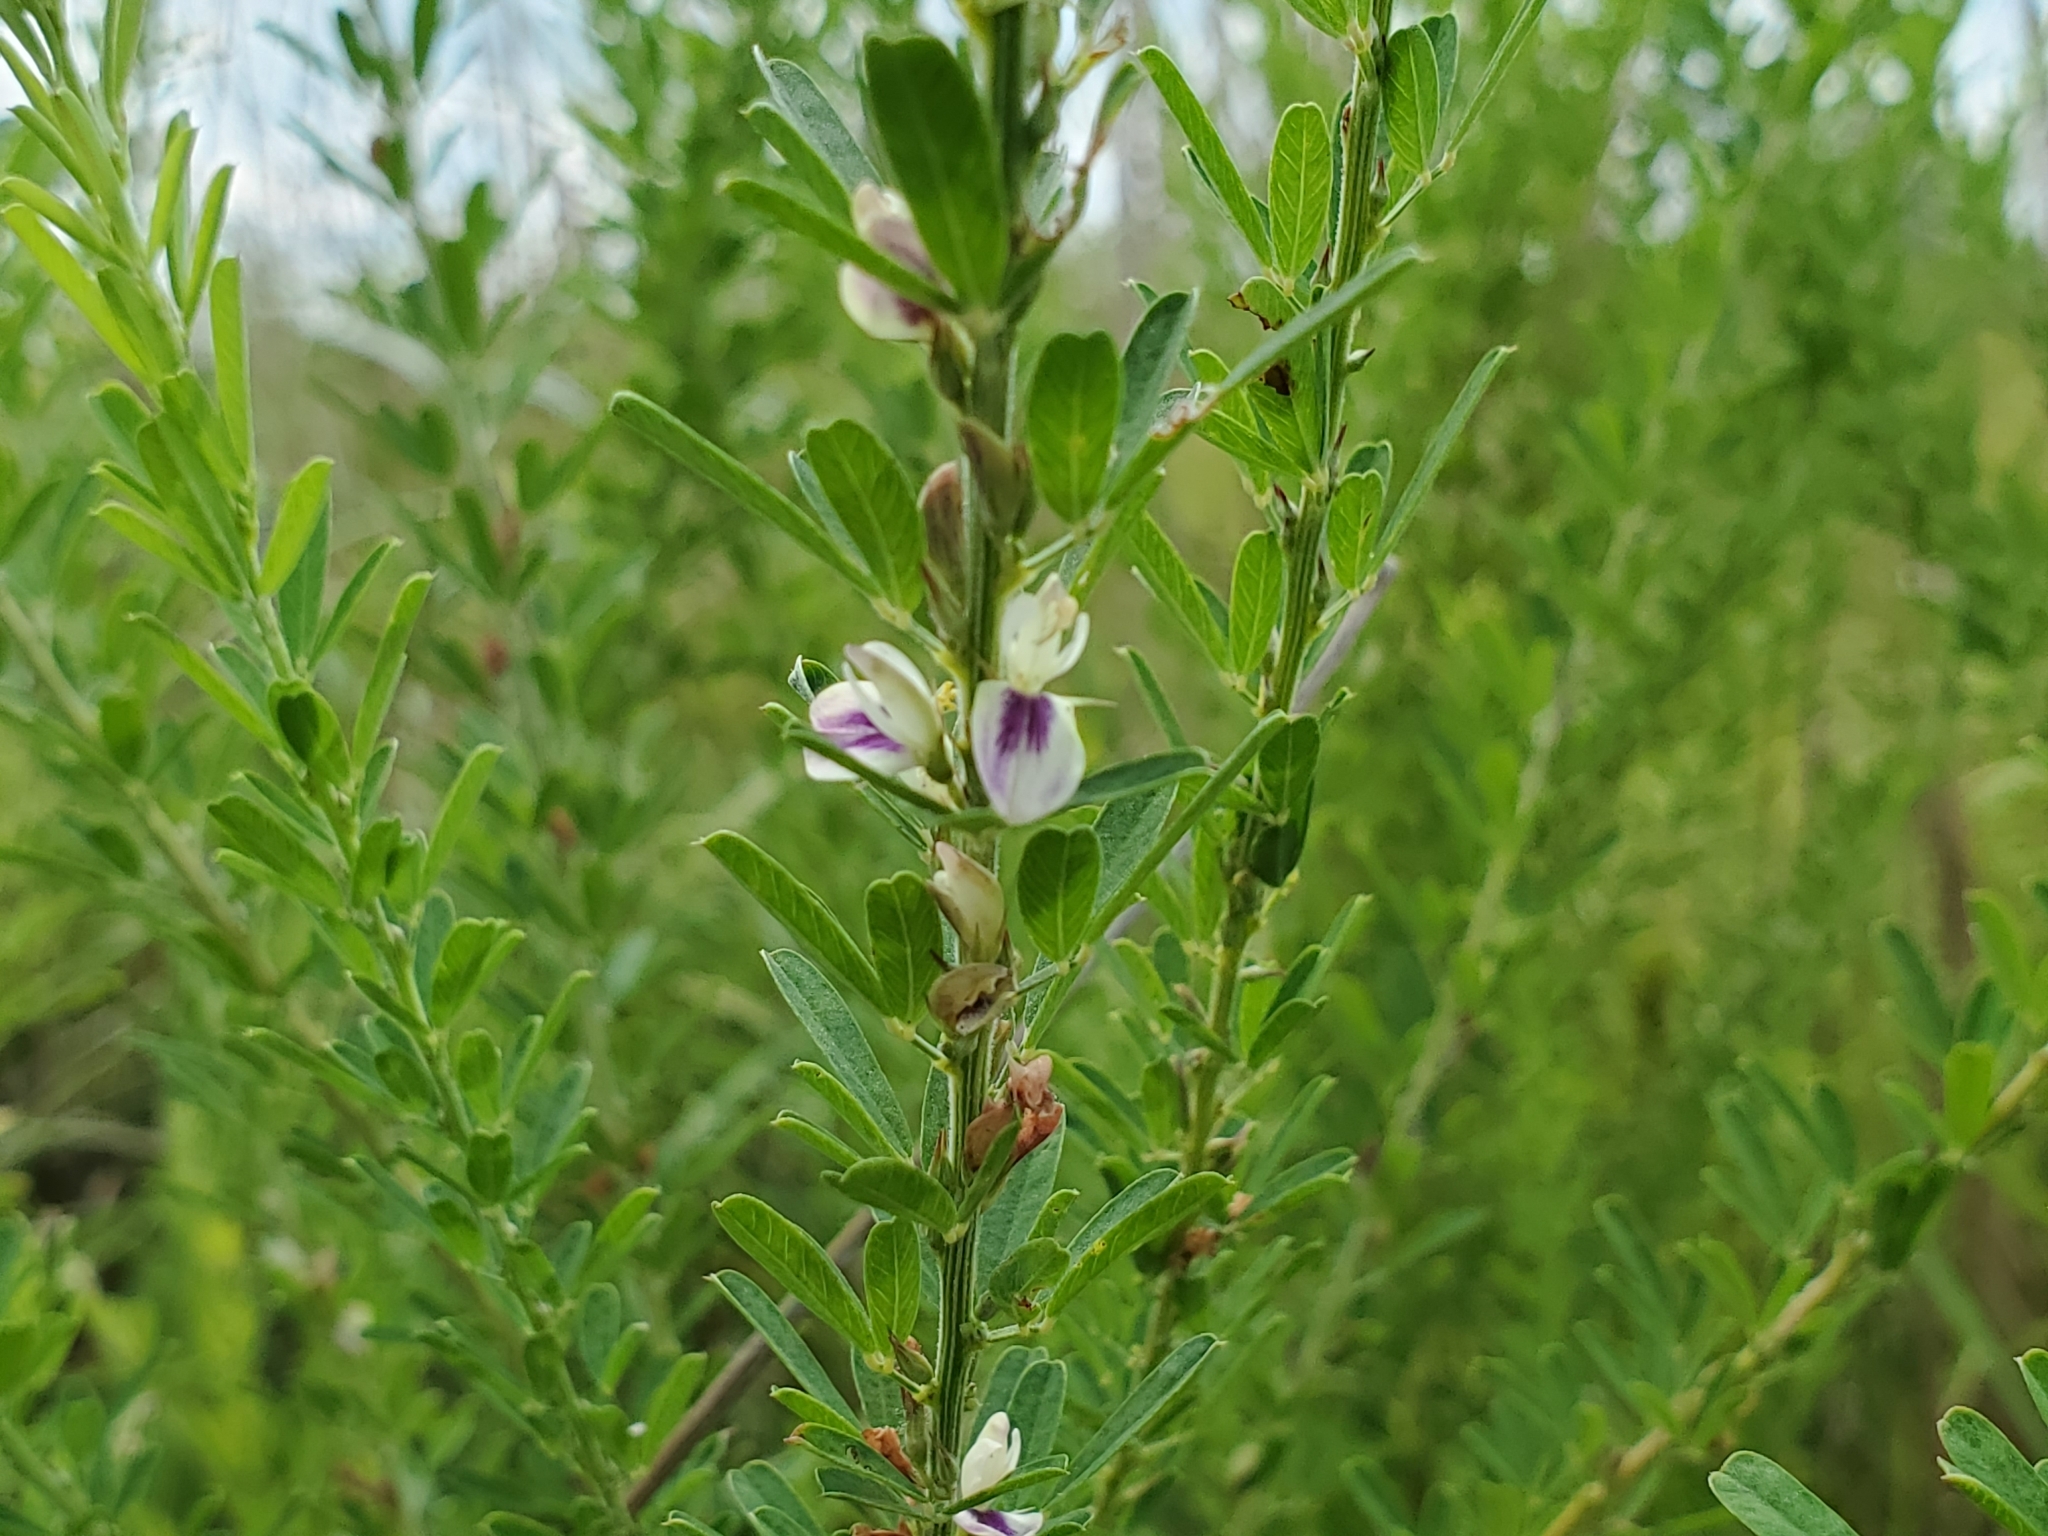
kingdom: Plantae
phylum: Tracheophyta
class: Magnoliopsida
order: Fabales
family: Fabaceae
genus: Lespedeza
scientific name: Lespedeza cuneata
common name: Chinese bush-clover
